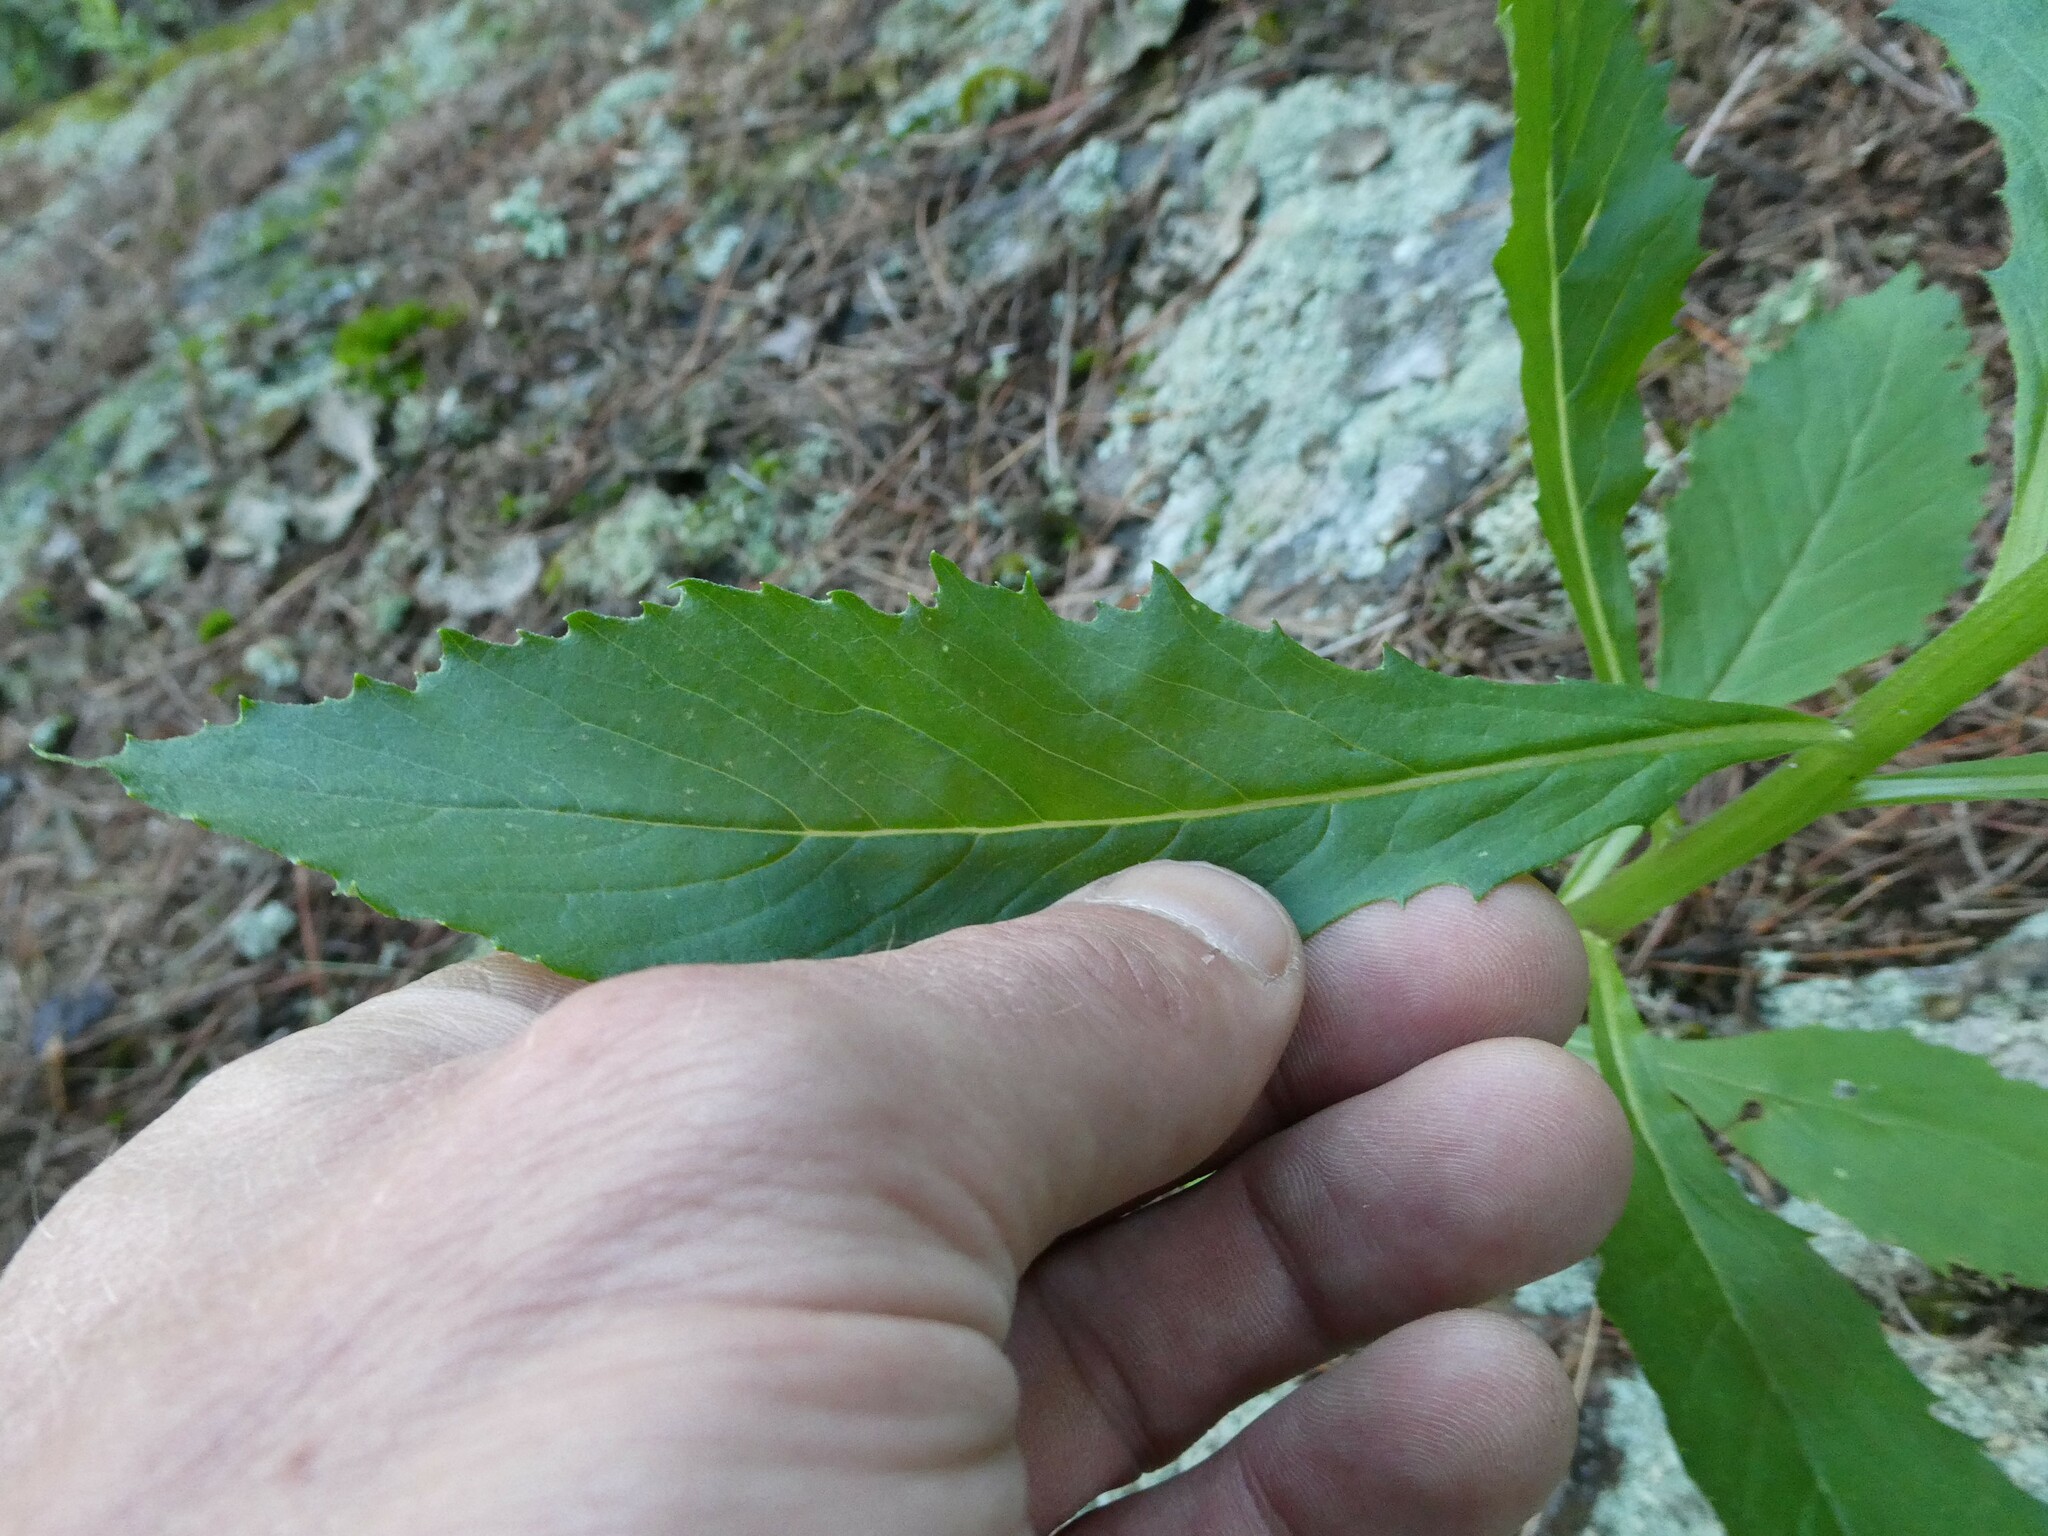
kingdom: Plantae
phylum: Tracheophyta
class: Magnoliopsida
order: Asterales
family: Asteraceae
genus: Erechtites
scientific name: Erechtites hieraciifolius
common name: American burnweed
